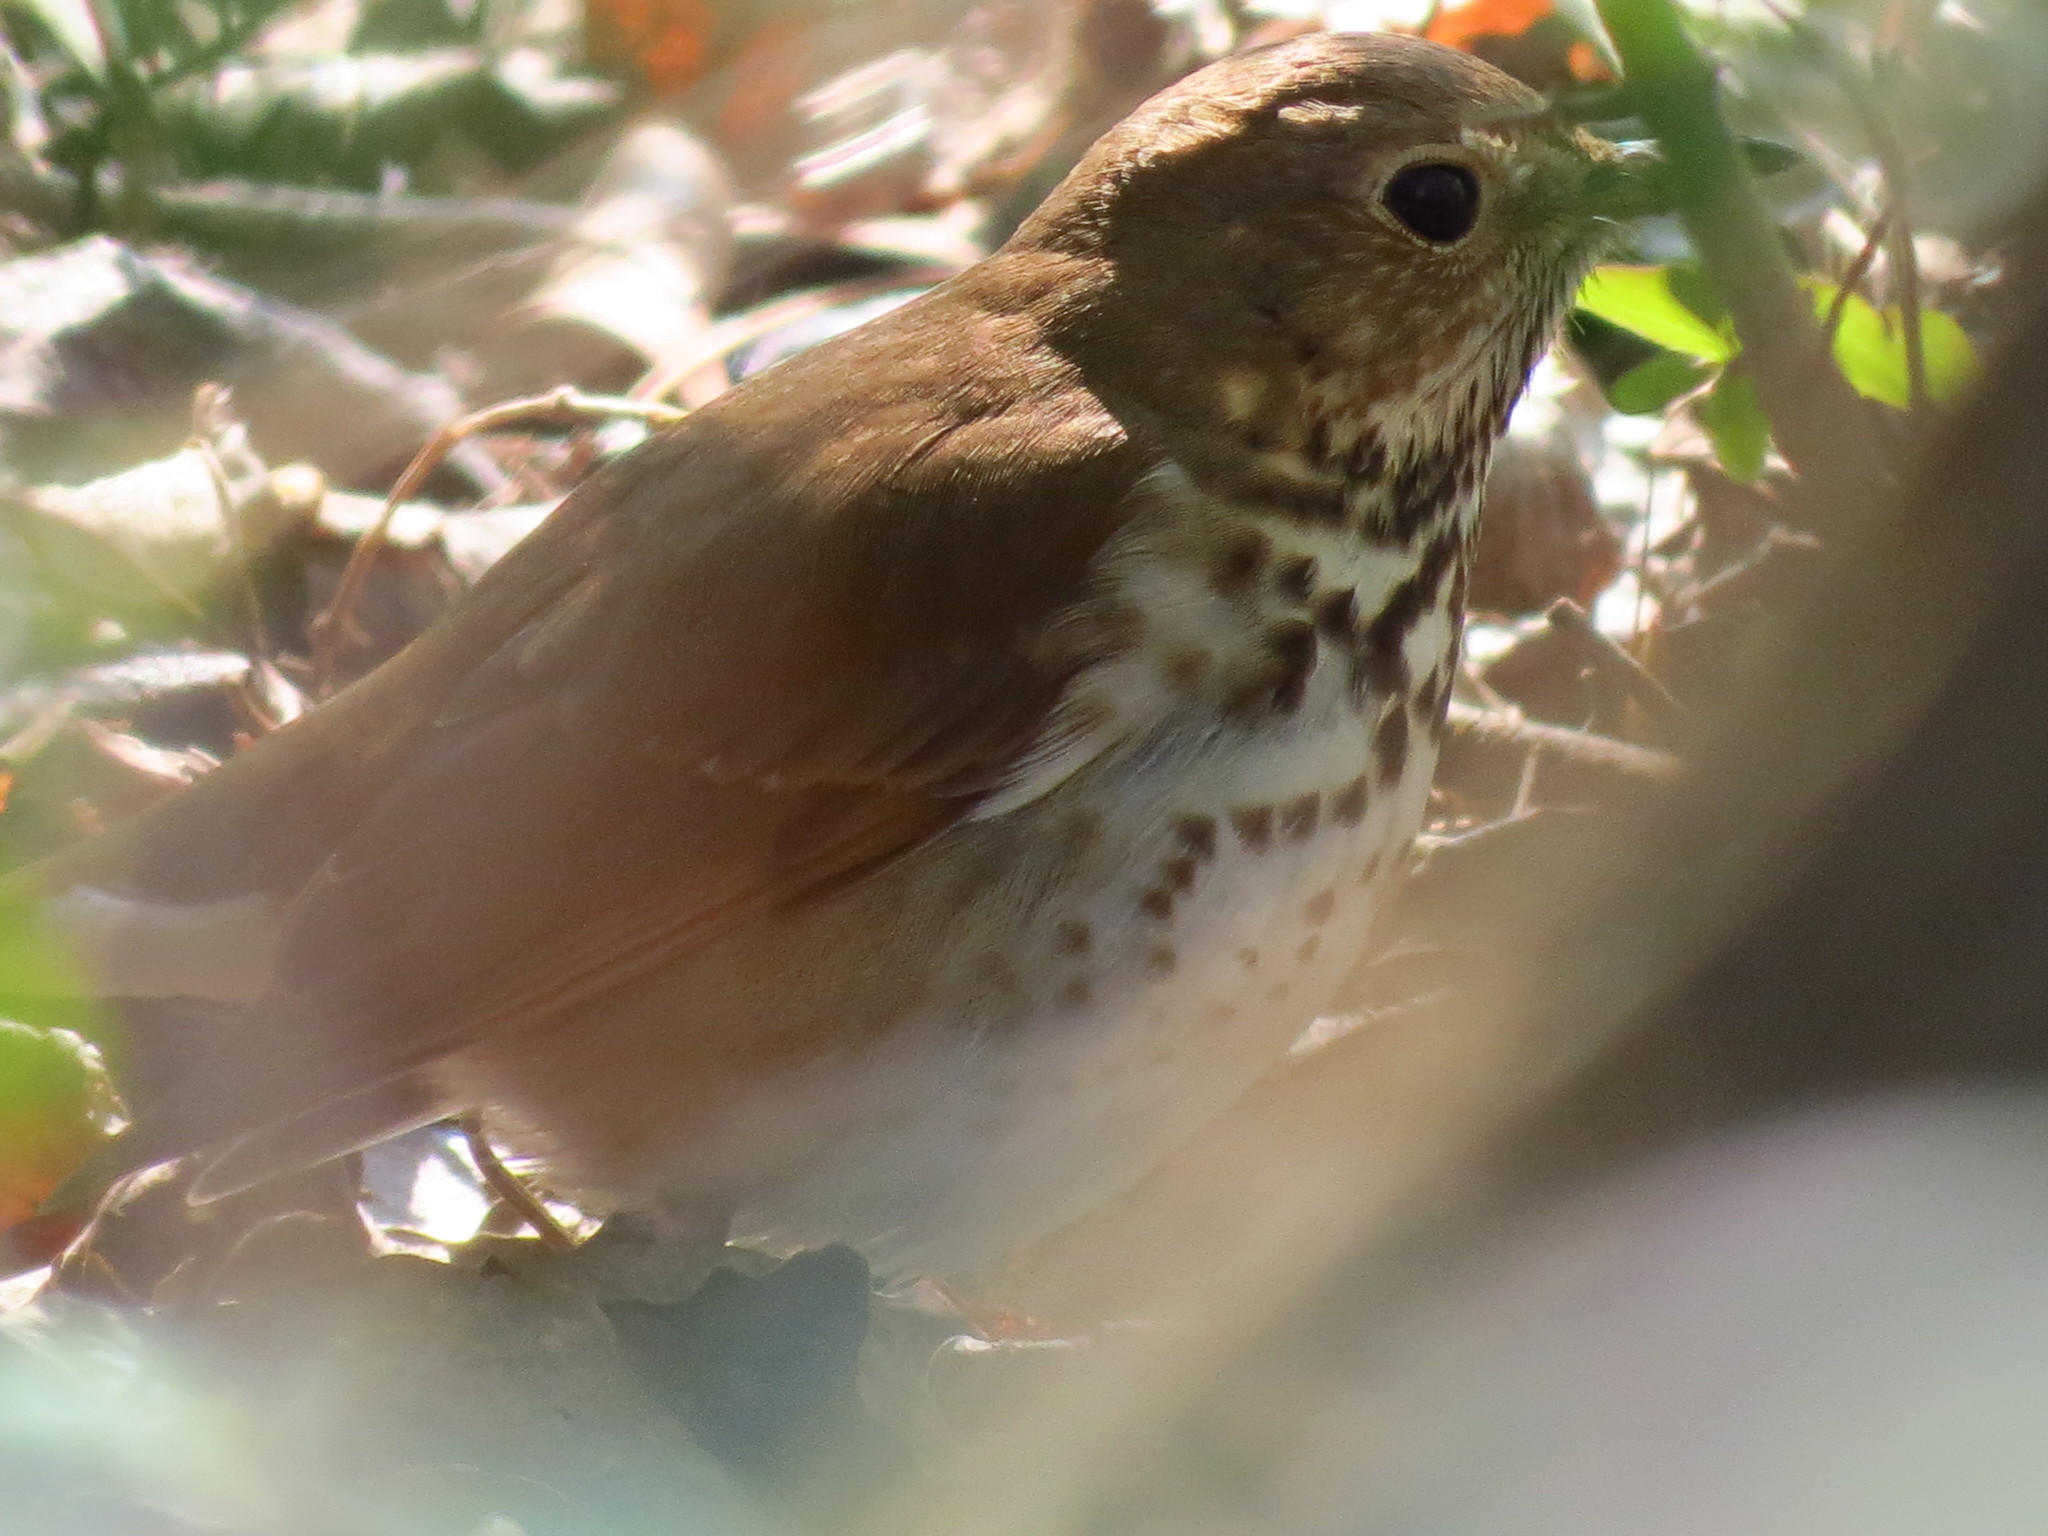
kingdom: Animalia
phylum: Chordata
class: Aves
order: Passeriformes
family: Turdidae
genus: Catharus
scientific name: Catharus guttatus
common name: Hermit thrush
